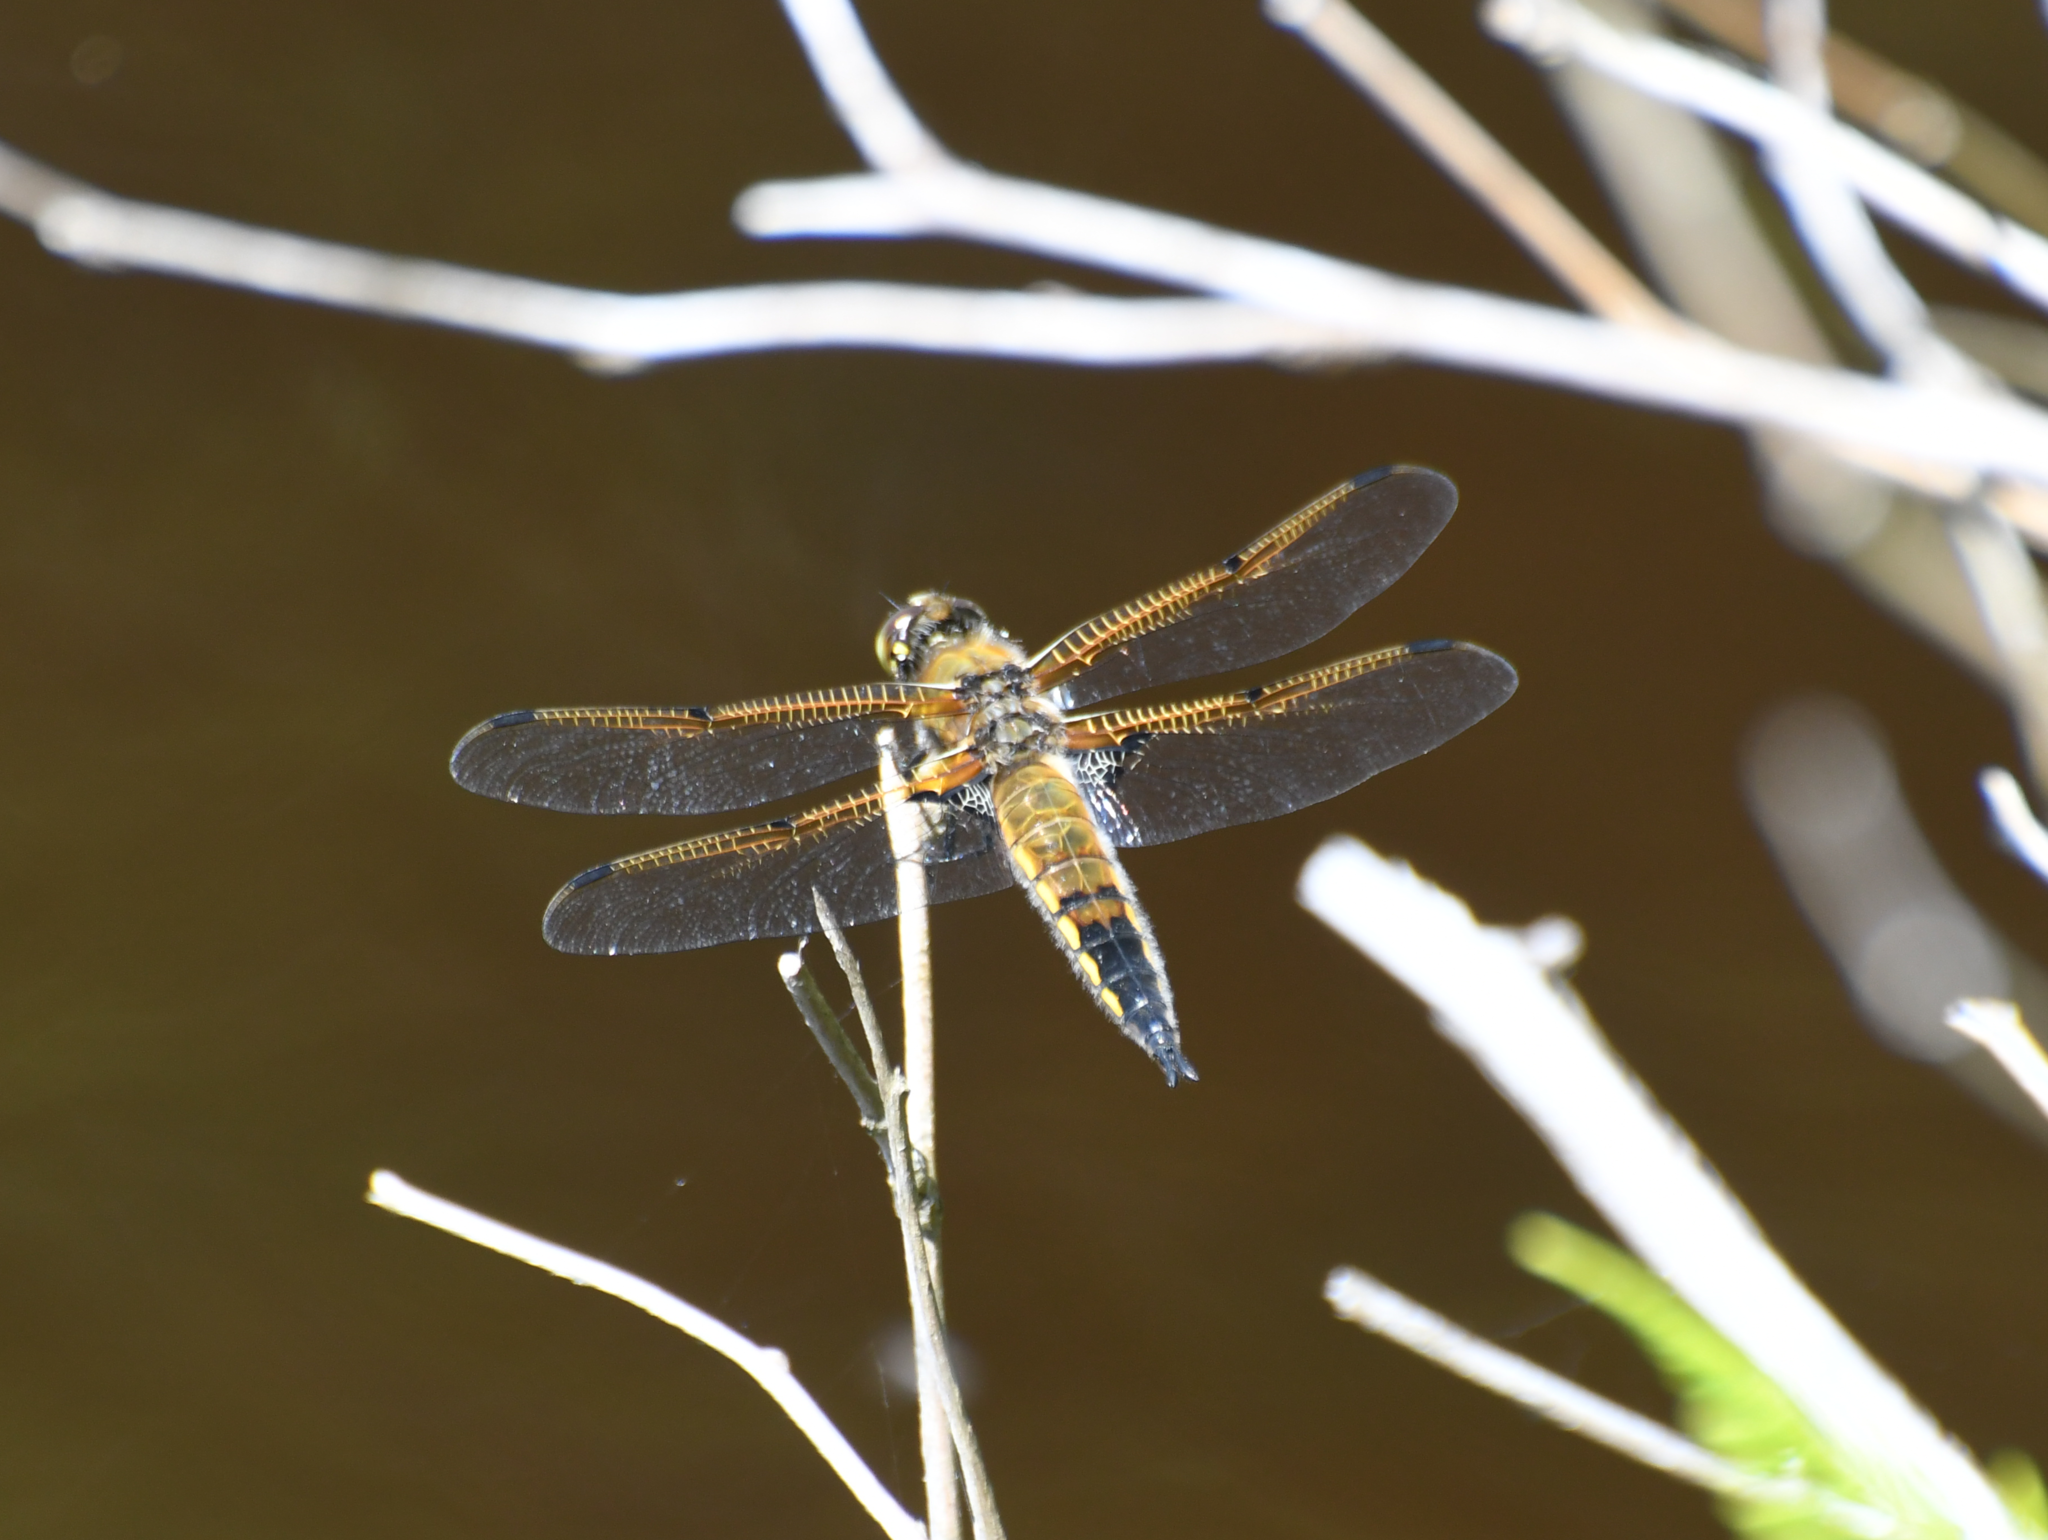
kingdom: Animalia
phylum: Arthropoda
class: Insecta
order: Odonata
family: Libellulidae
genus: Libellula
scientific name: Libellula quadrimaculata
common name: Four-spotted chaser
